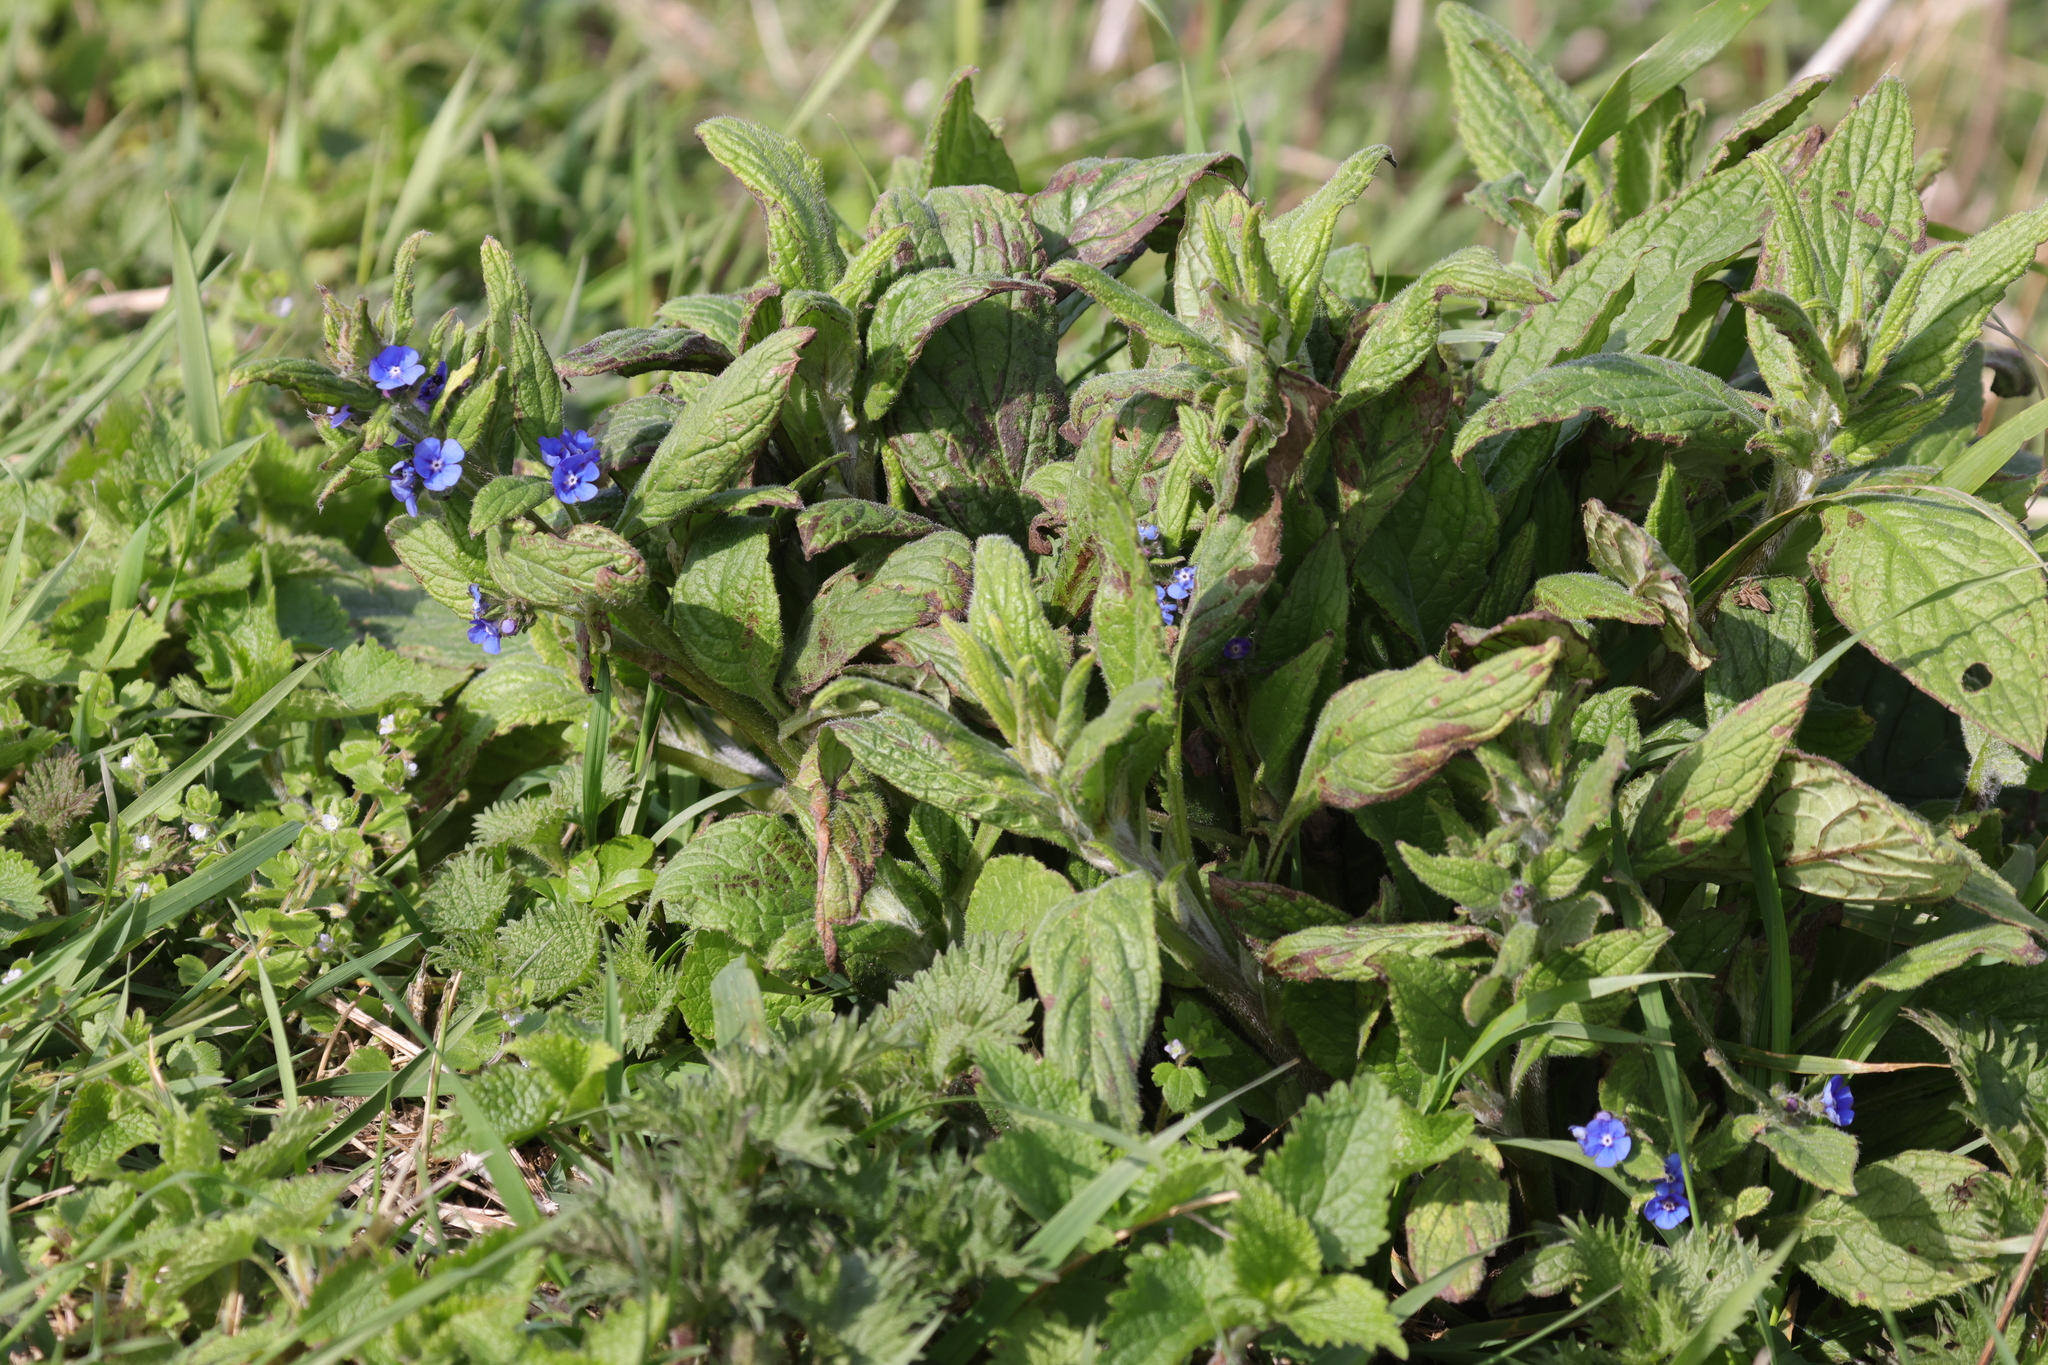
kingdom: Plantae
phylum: Tracheophyta
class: Magnoliopsida
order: Boraginales
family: Boraginaceae
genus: Pentaglottis
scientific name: Pentaglottis sempervirens
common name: Green alkanet
